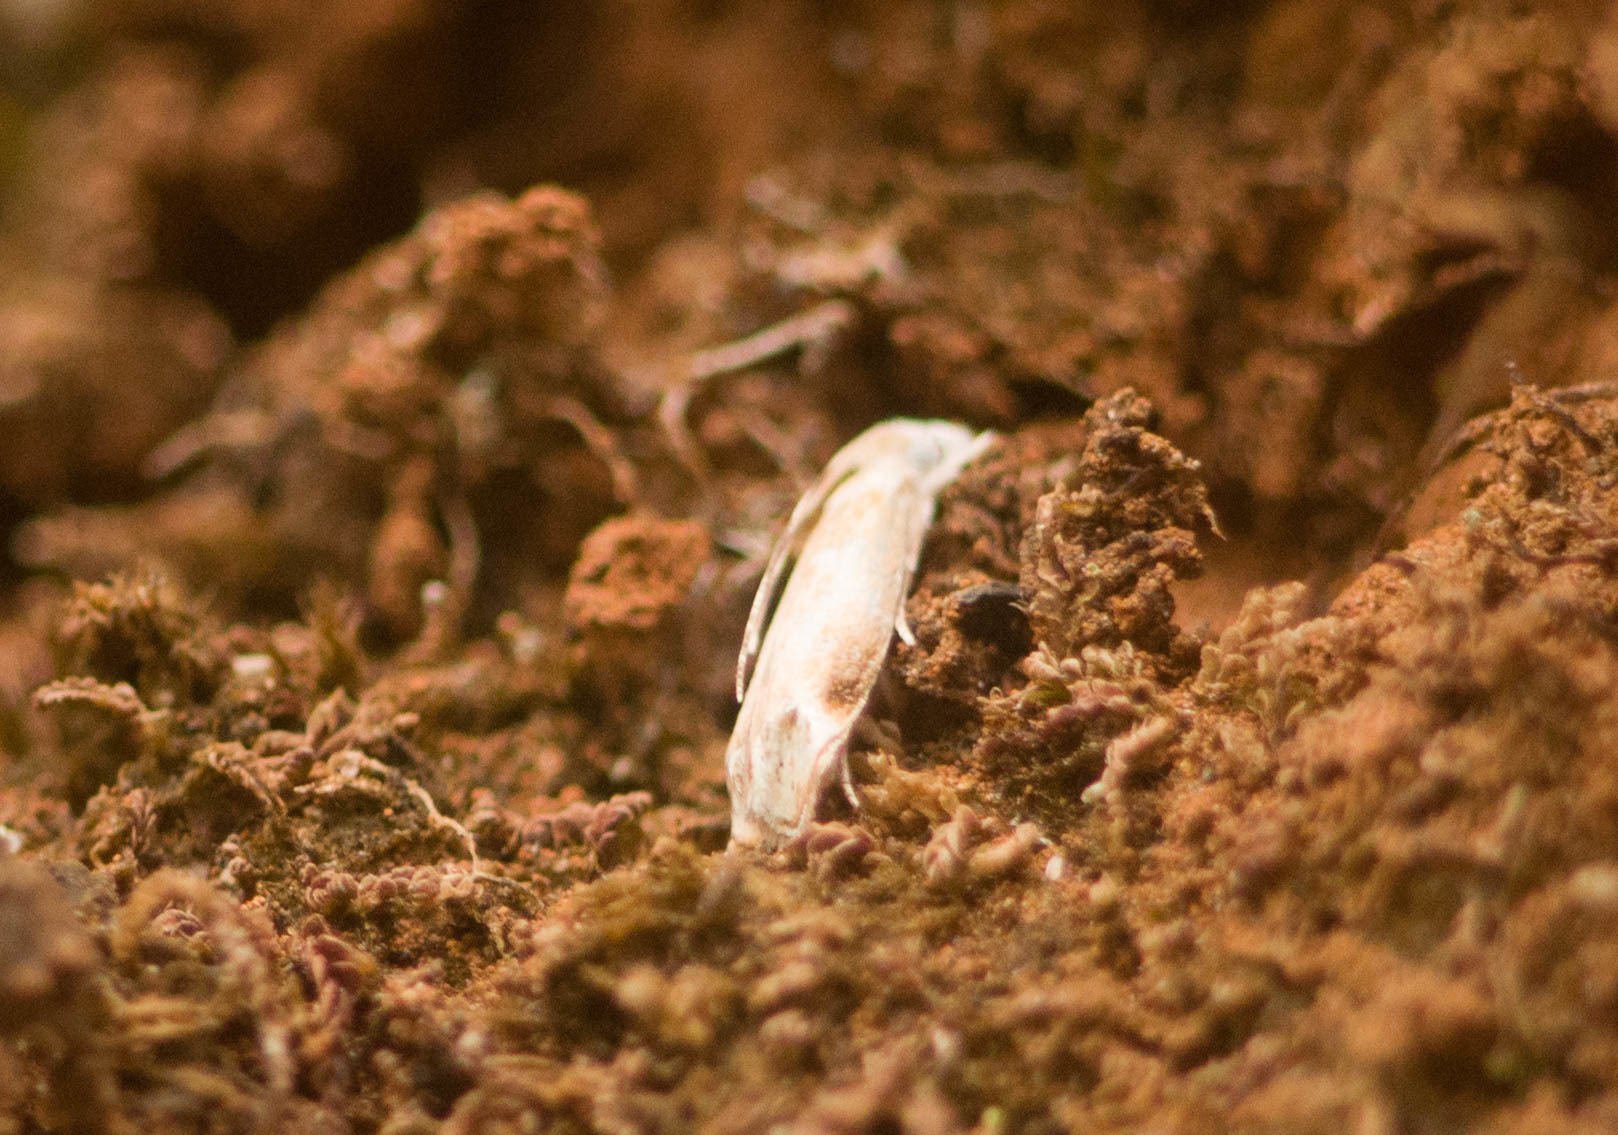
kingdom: Animalia
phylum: Arthropoda
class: Insecta
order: Lepidoptera
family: Dryadaulidae
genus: Dryadaula
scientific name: Dryadaula terpsichorella
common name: Dancing moth
